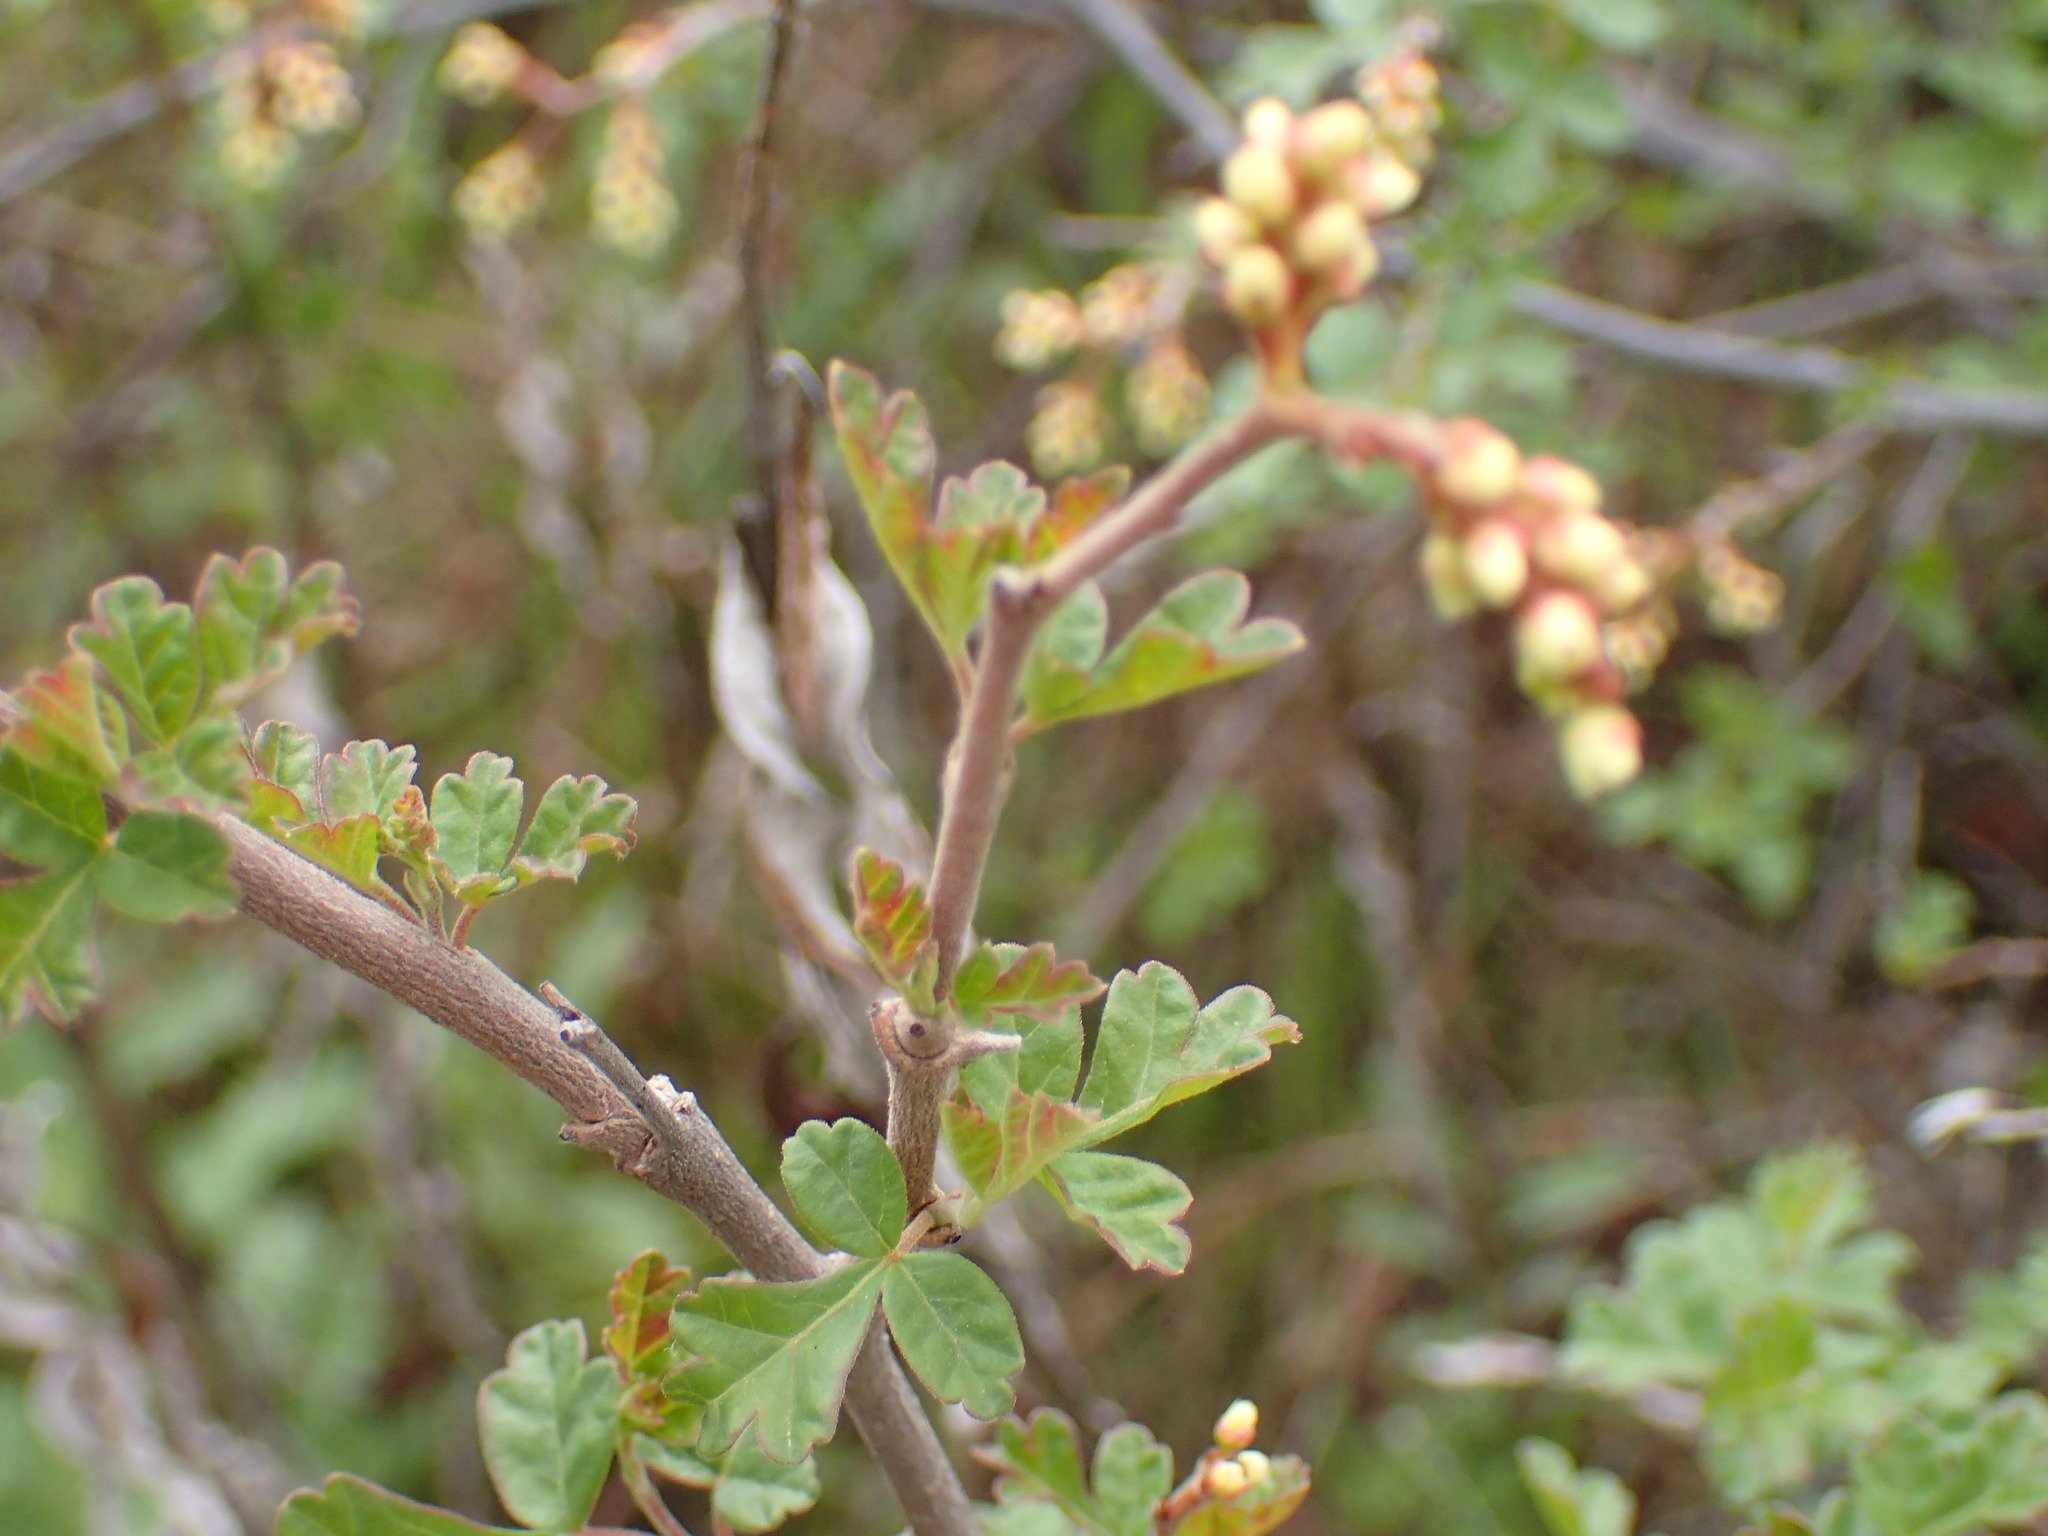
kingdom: Plantae
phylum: Tracheophyta
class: Magnoliopsida
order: Sapindales
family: Anacardiaceae
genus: Rhus
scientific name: Rhus aromatica
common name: Aromatic sumac
